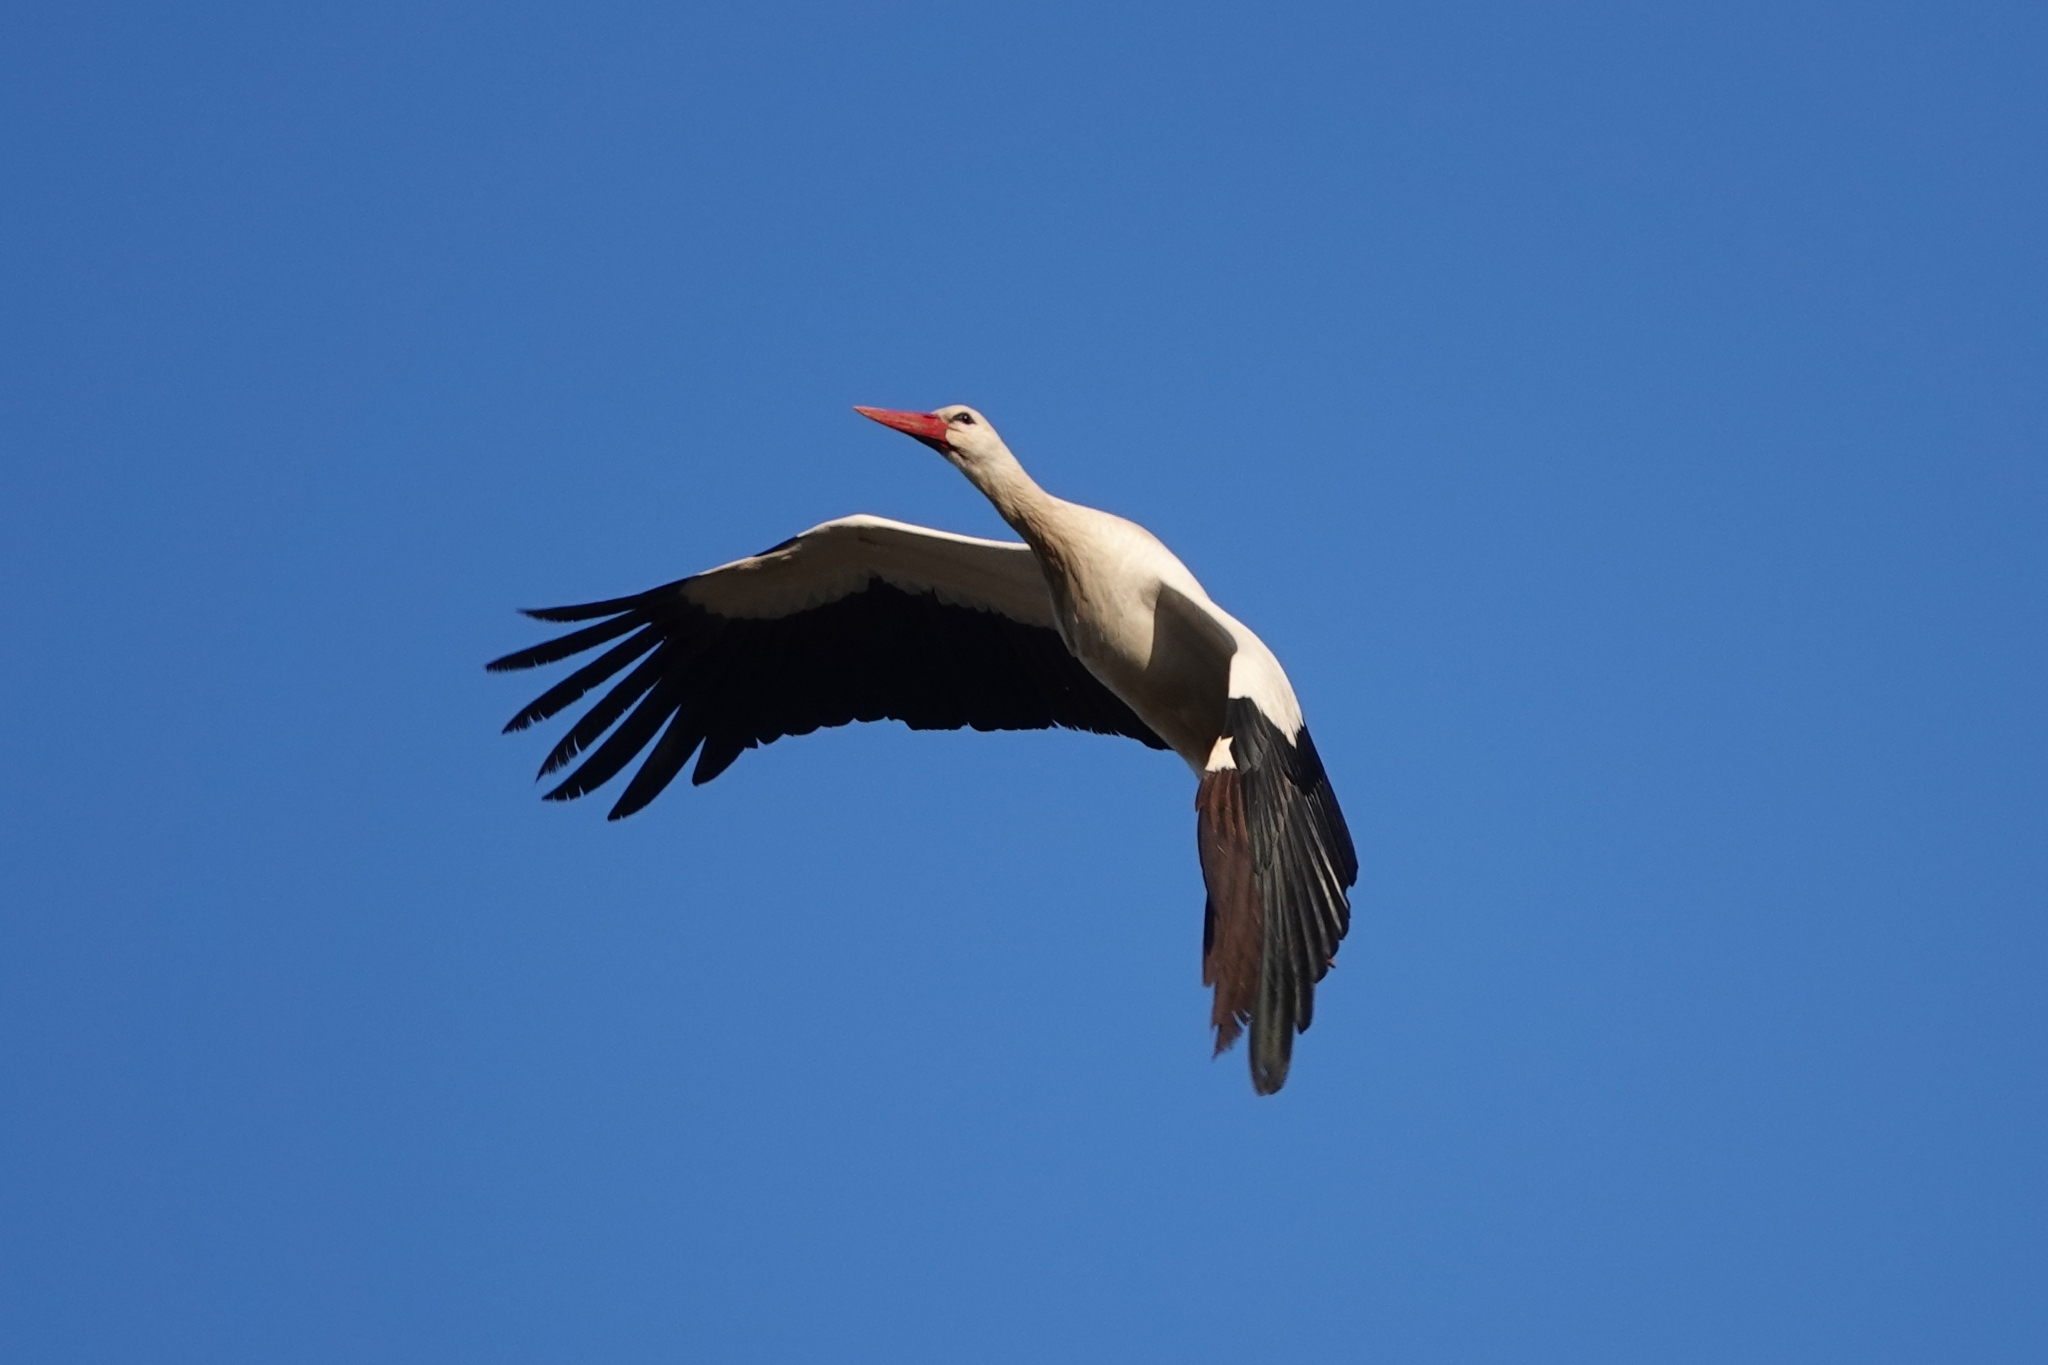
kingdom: Animalia
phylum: Chordata
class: Aves
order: Ciconiiformes
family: Ciconiidae
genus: Ciconia
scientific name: Ciconia ciconia
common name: White stork
